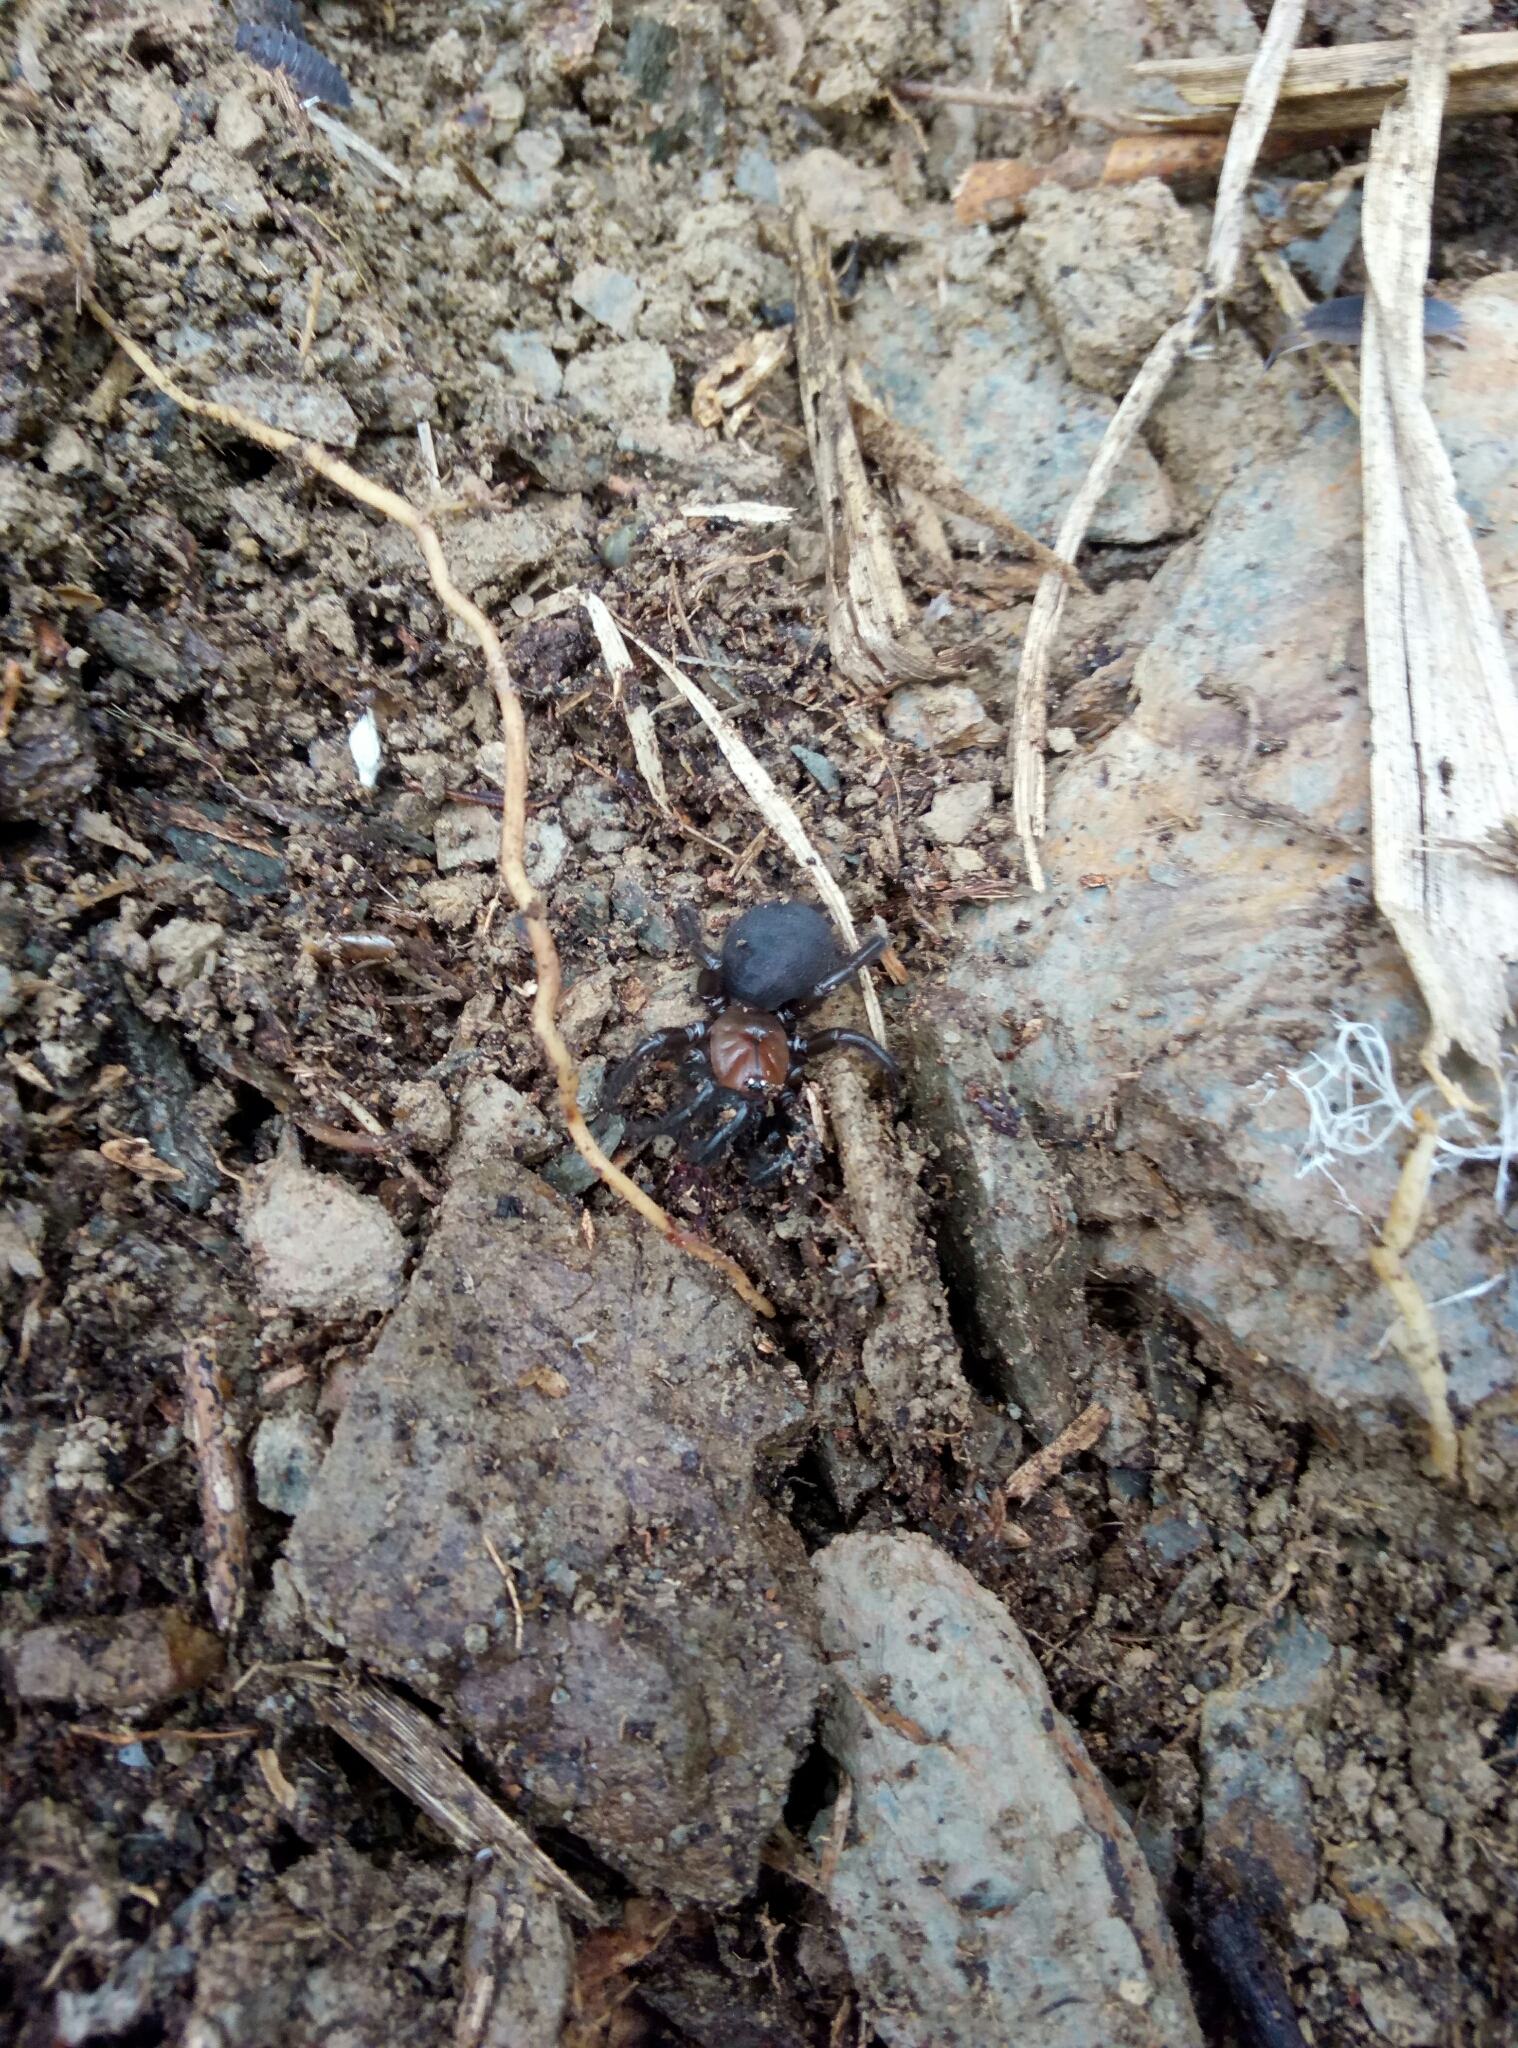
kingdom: Animalia
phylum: Arthropoda
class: Arachnida
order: Araneae
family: Porrhothelidae
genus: Porrhothele
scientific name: Porrhothele antipodiana
